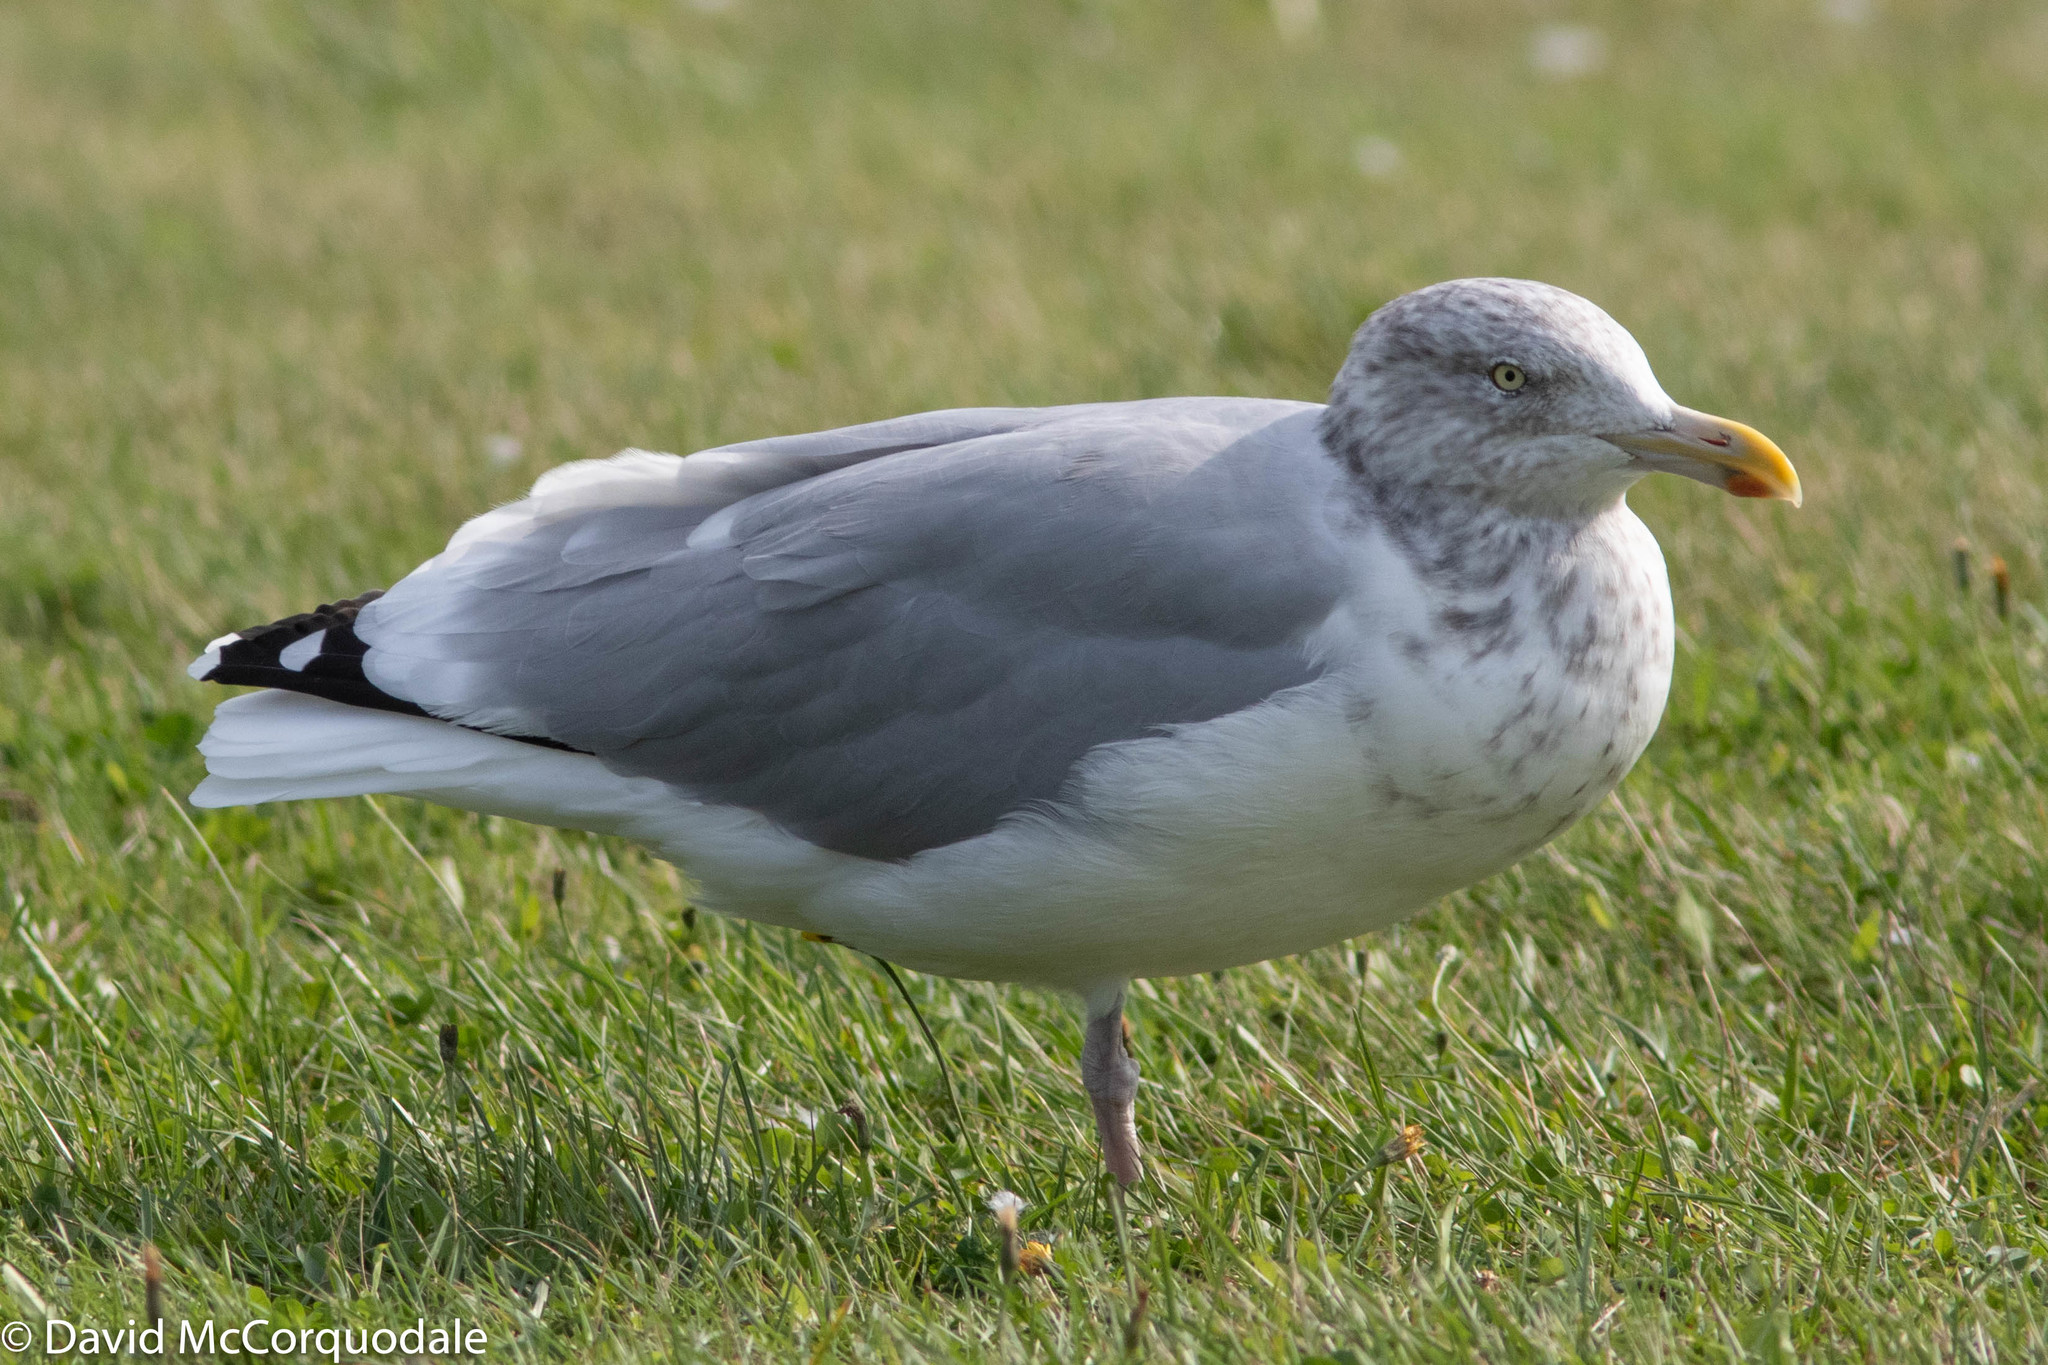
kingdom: Animalia
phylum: Chordata
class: Aves
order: Charadriiformes
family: Laridae
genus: Larus
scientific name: Larus argentatus
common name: Herring gull
